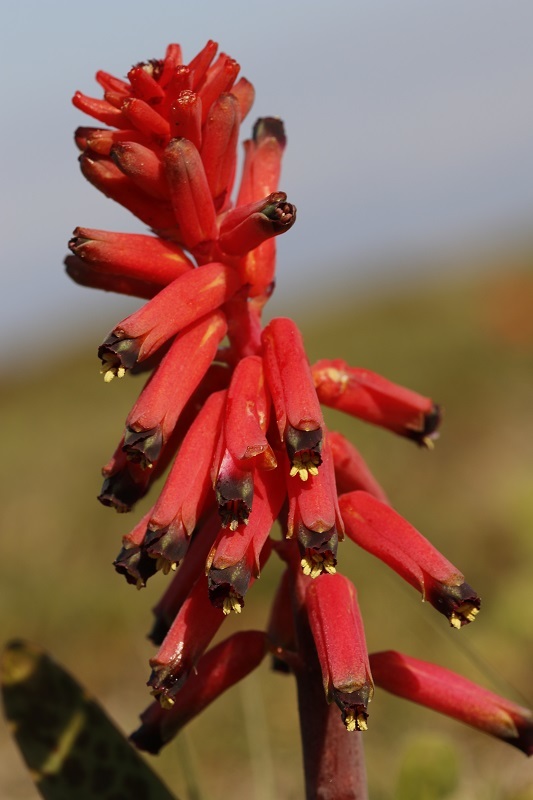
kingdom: Plantae
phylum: Tracheophyta
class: Liliopsida
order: Asparagales
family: Asparagaceae
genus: Lachenalia
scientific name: Lachenalia bulbifera
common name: Red lachenalia
